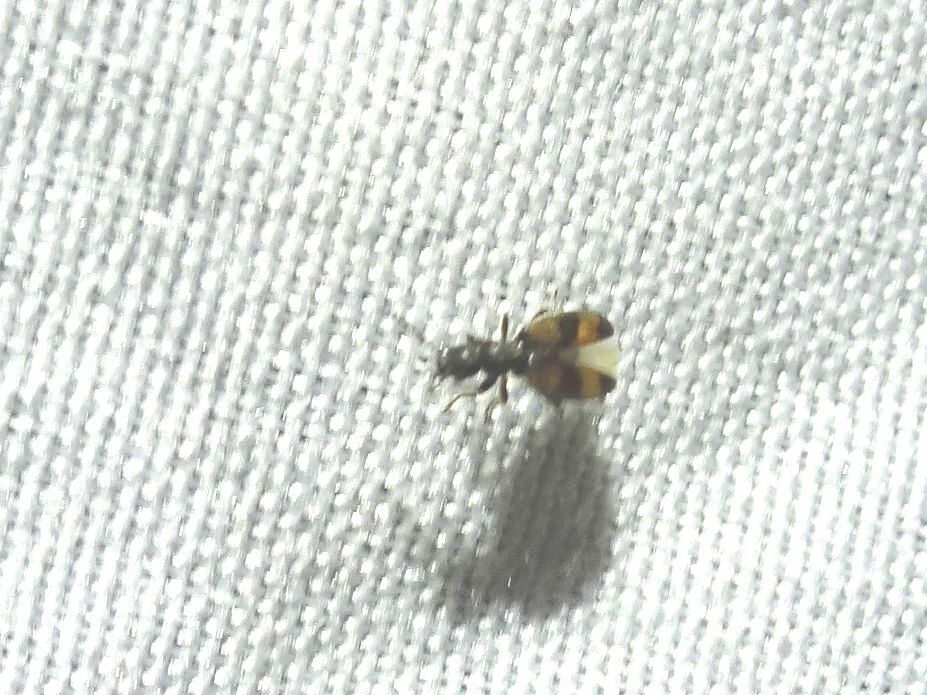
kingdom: Animalia
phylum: Arthropoda
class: Insecta
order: Coleoptera
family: Anthicidae
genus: Anthicus
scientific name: Anthicus antherinus
